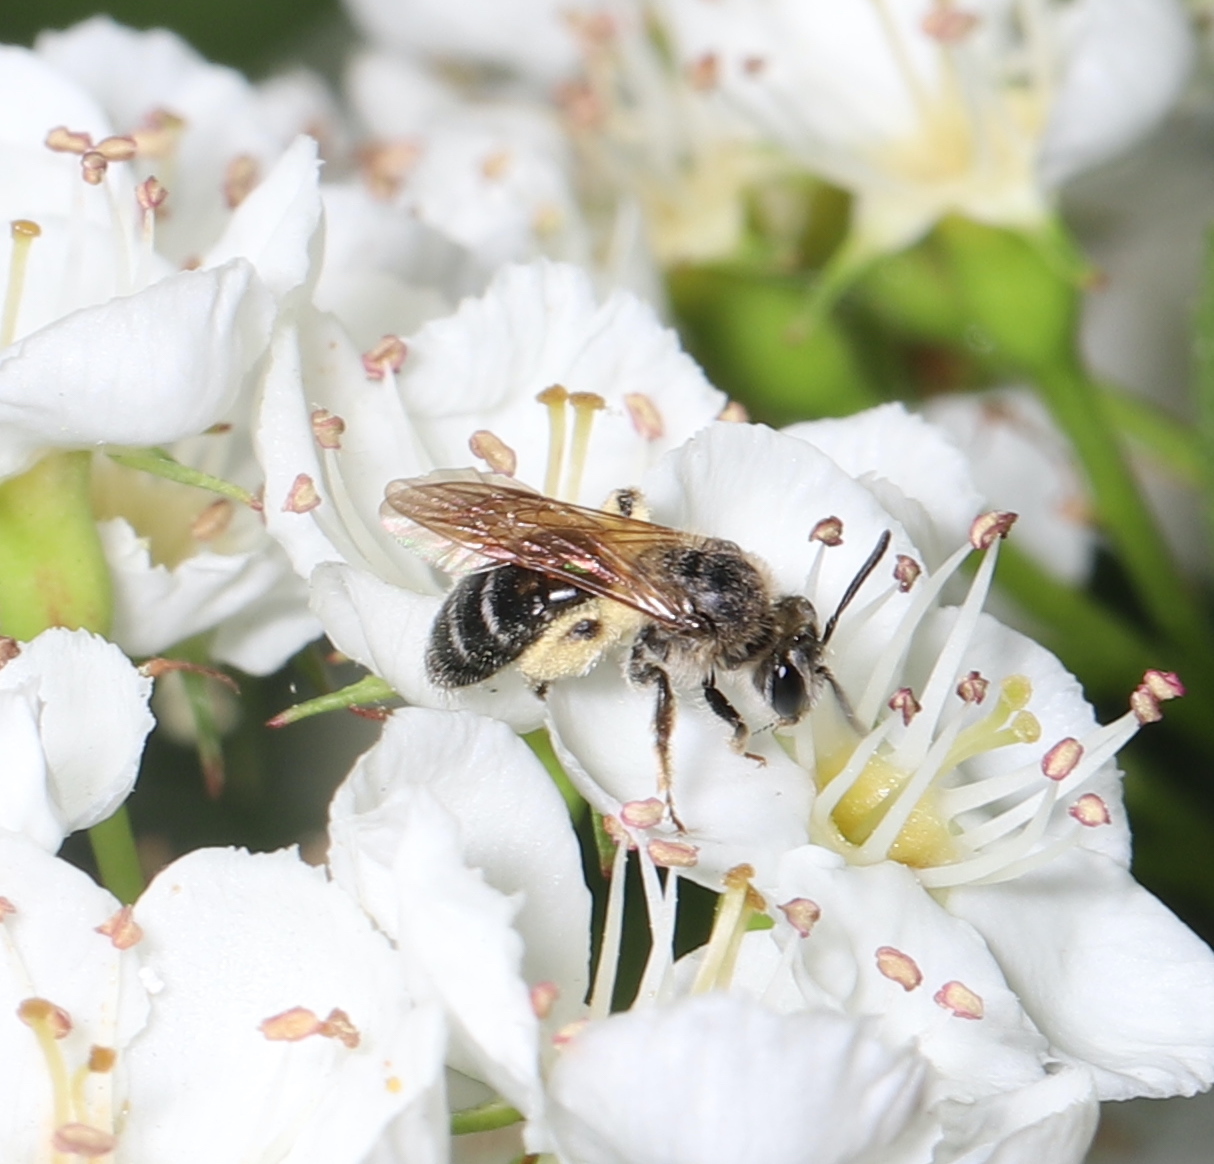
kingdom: Animalia
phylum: Arthropoda
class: Insecta
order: Hymenoptera
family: Andrenidae
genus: Andrena
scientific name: Andrena
